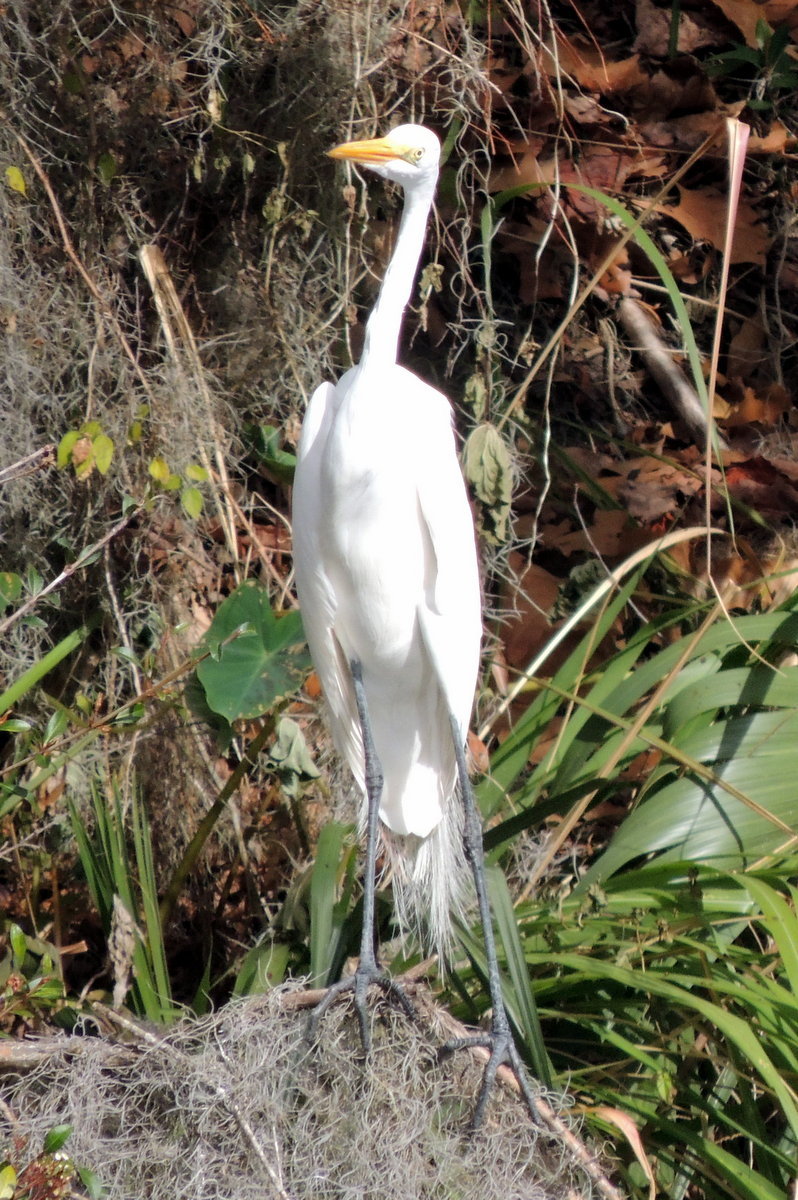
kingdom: Animalia
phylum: Chordata
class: Aves
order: Pelecaniformes
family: Ardeidae
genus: Ardea
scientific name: Ardea alba
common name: Great egret
